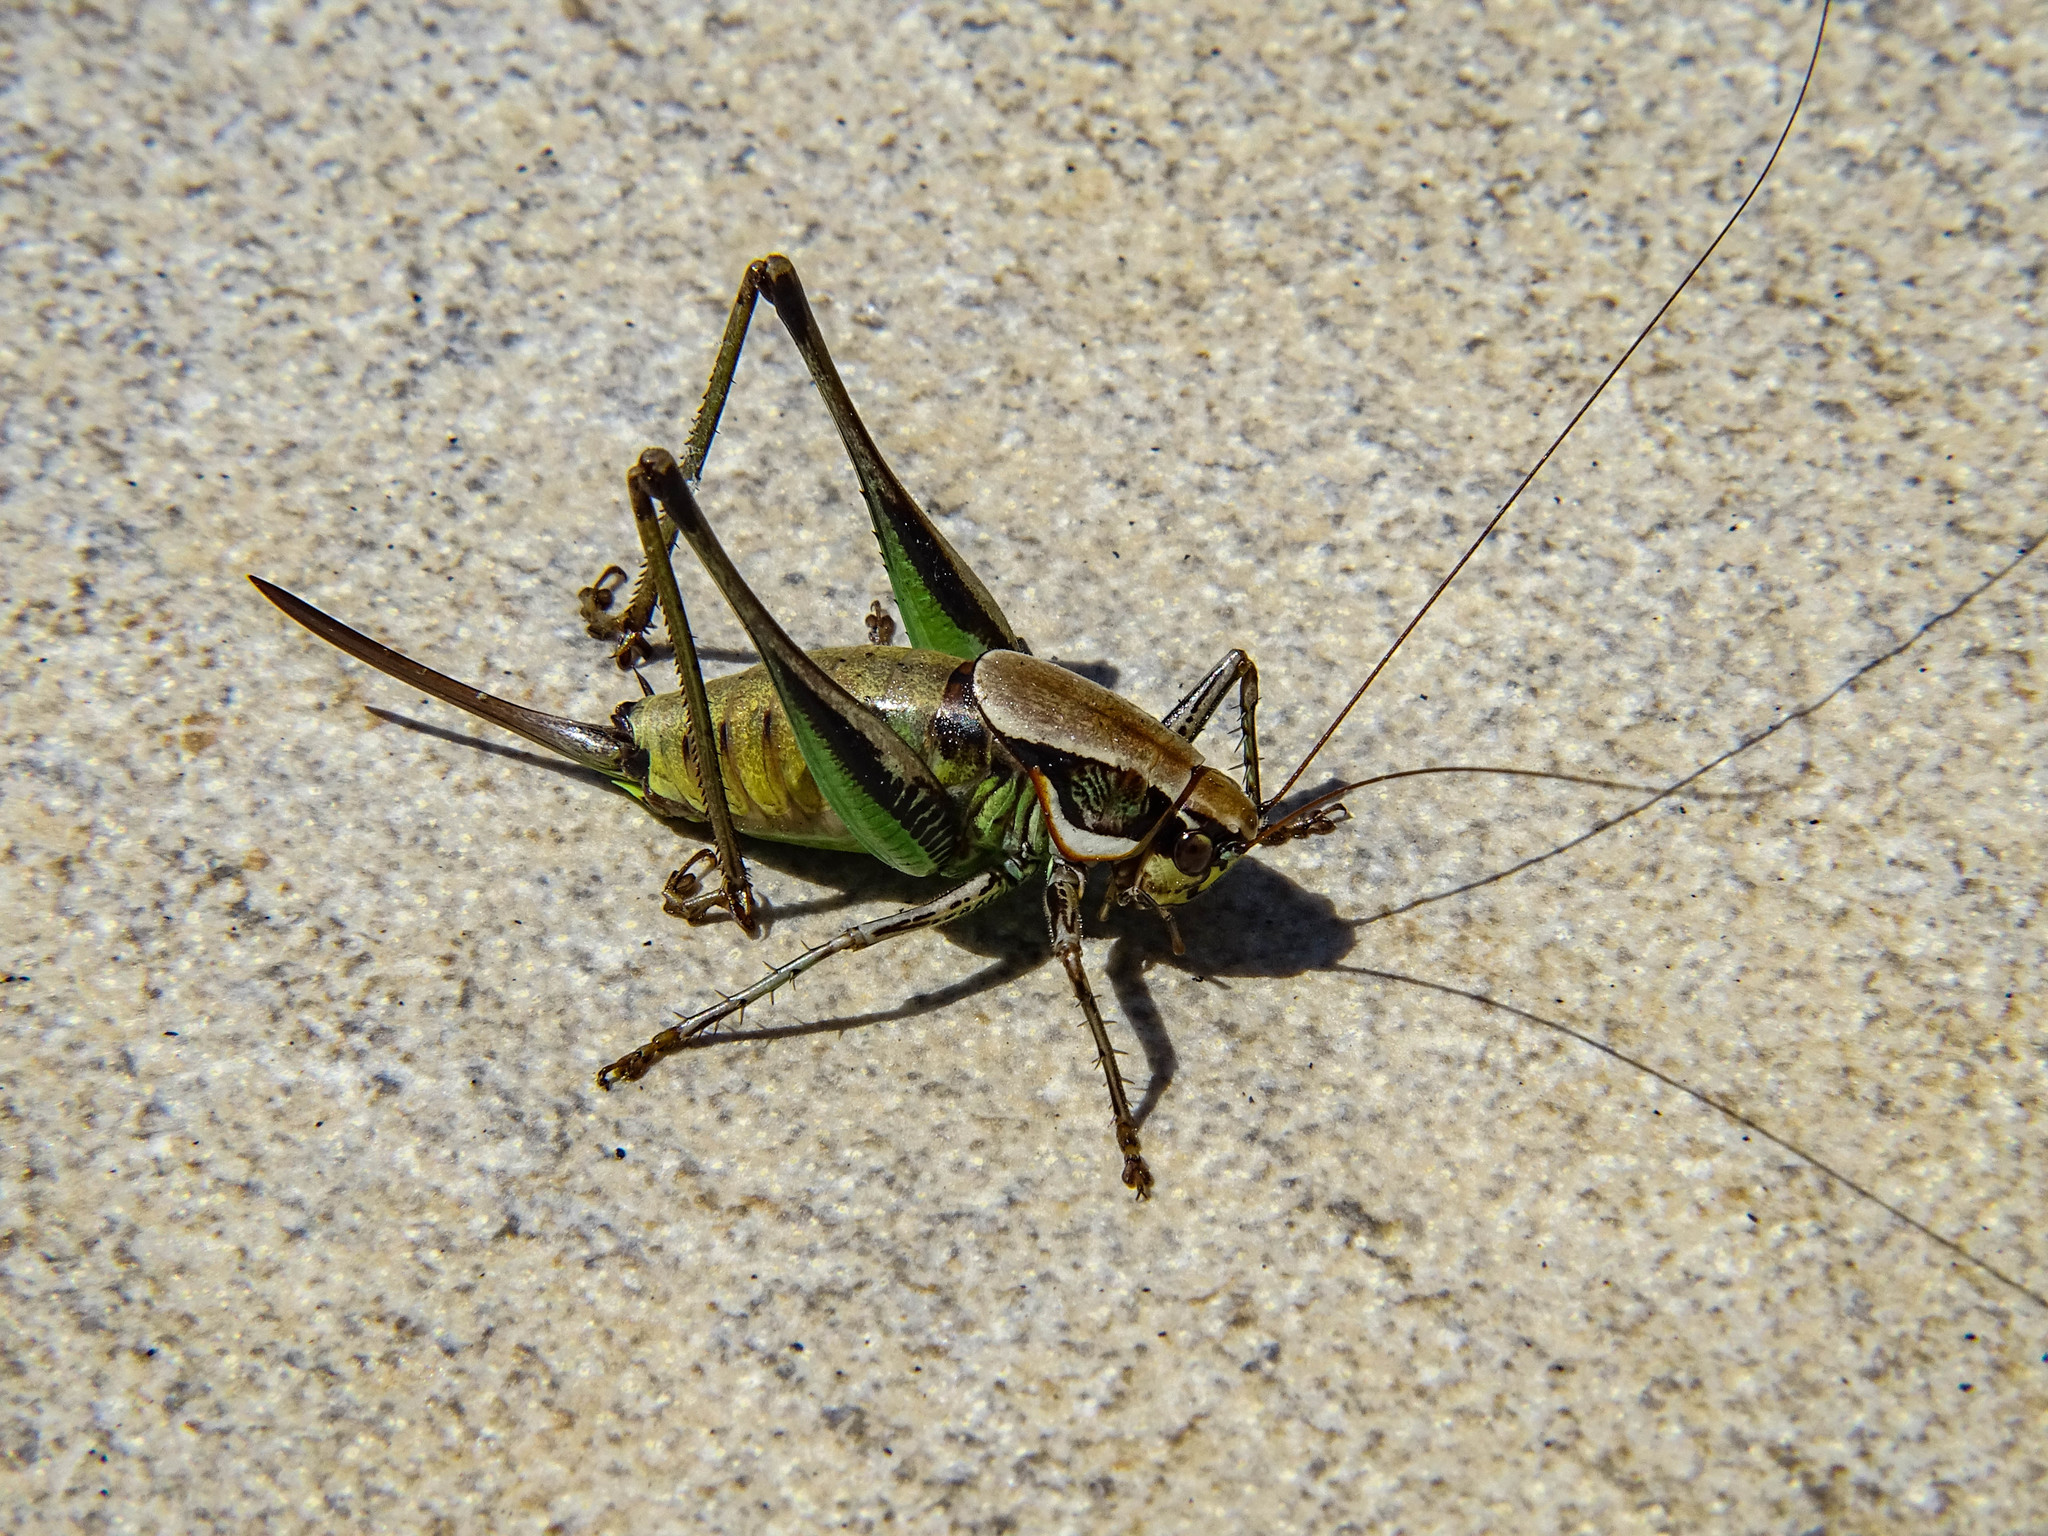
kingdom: Animalia
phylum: Arthropoda
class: Insecta
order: Orthoptera
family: Tettigoniidae
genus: Eupholidoptera
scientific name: Eupholidoptera smyrnensis
